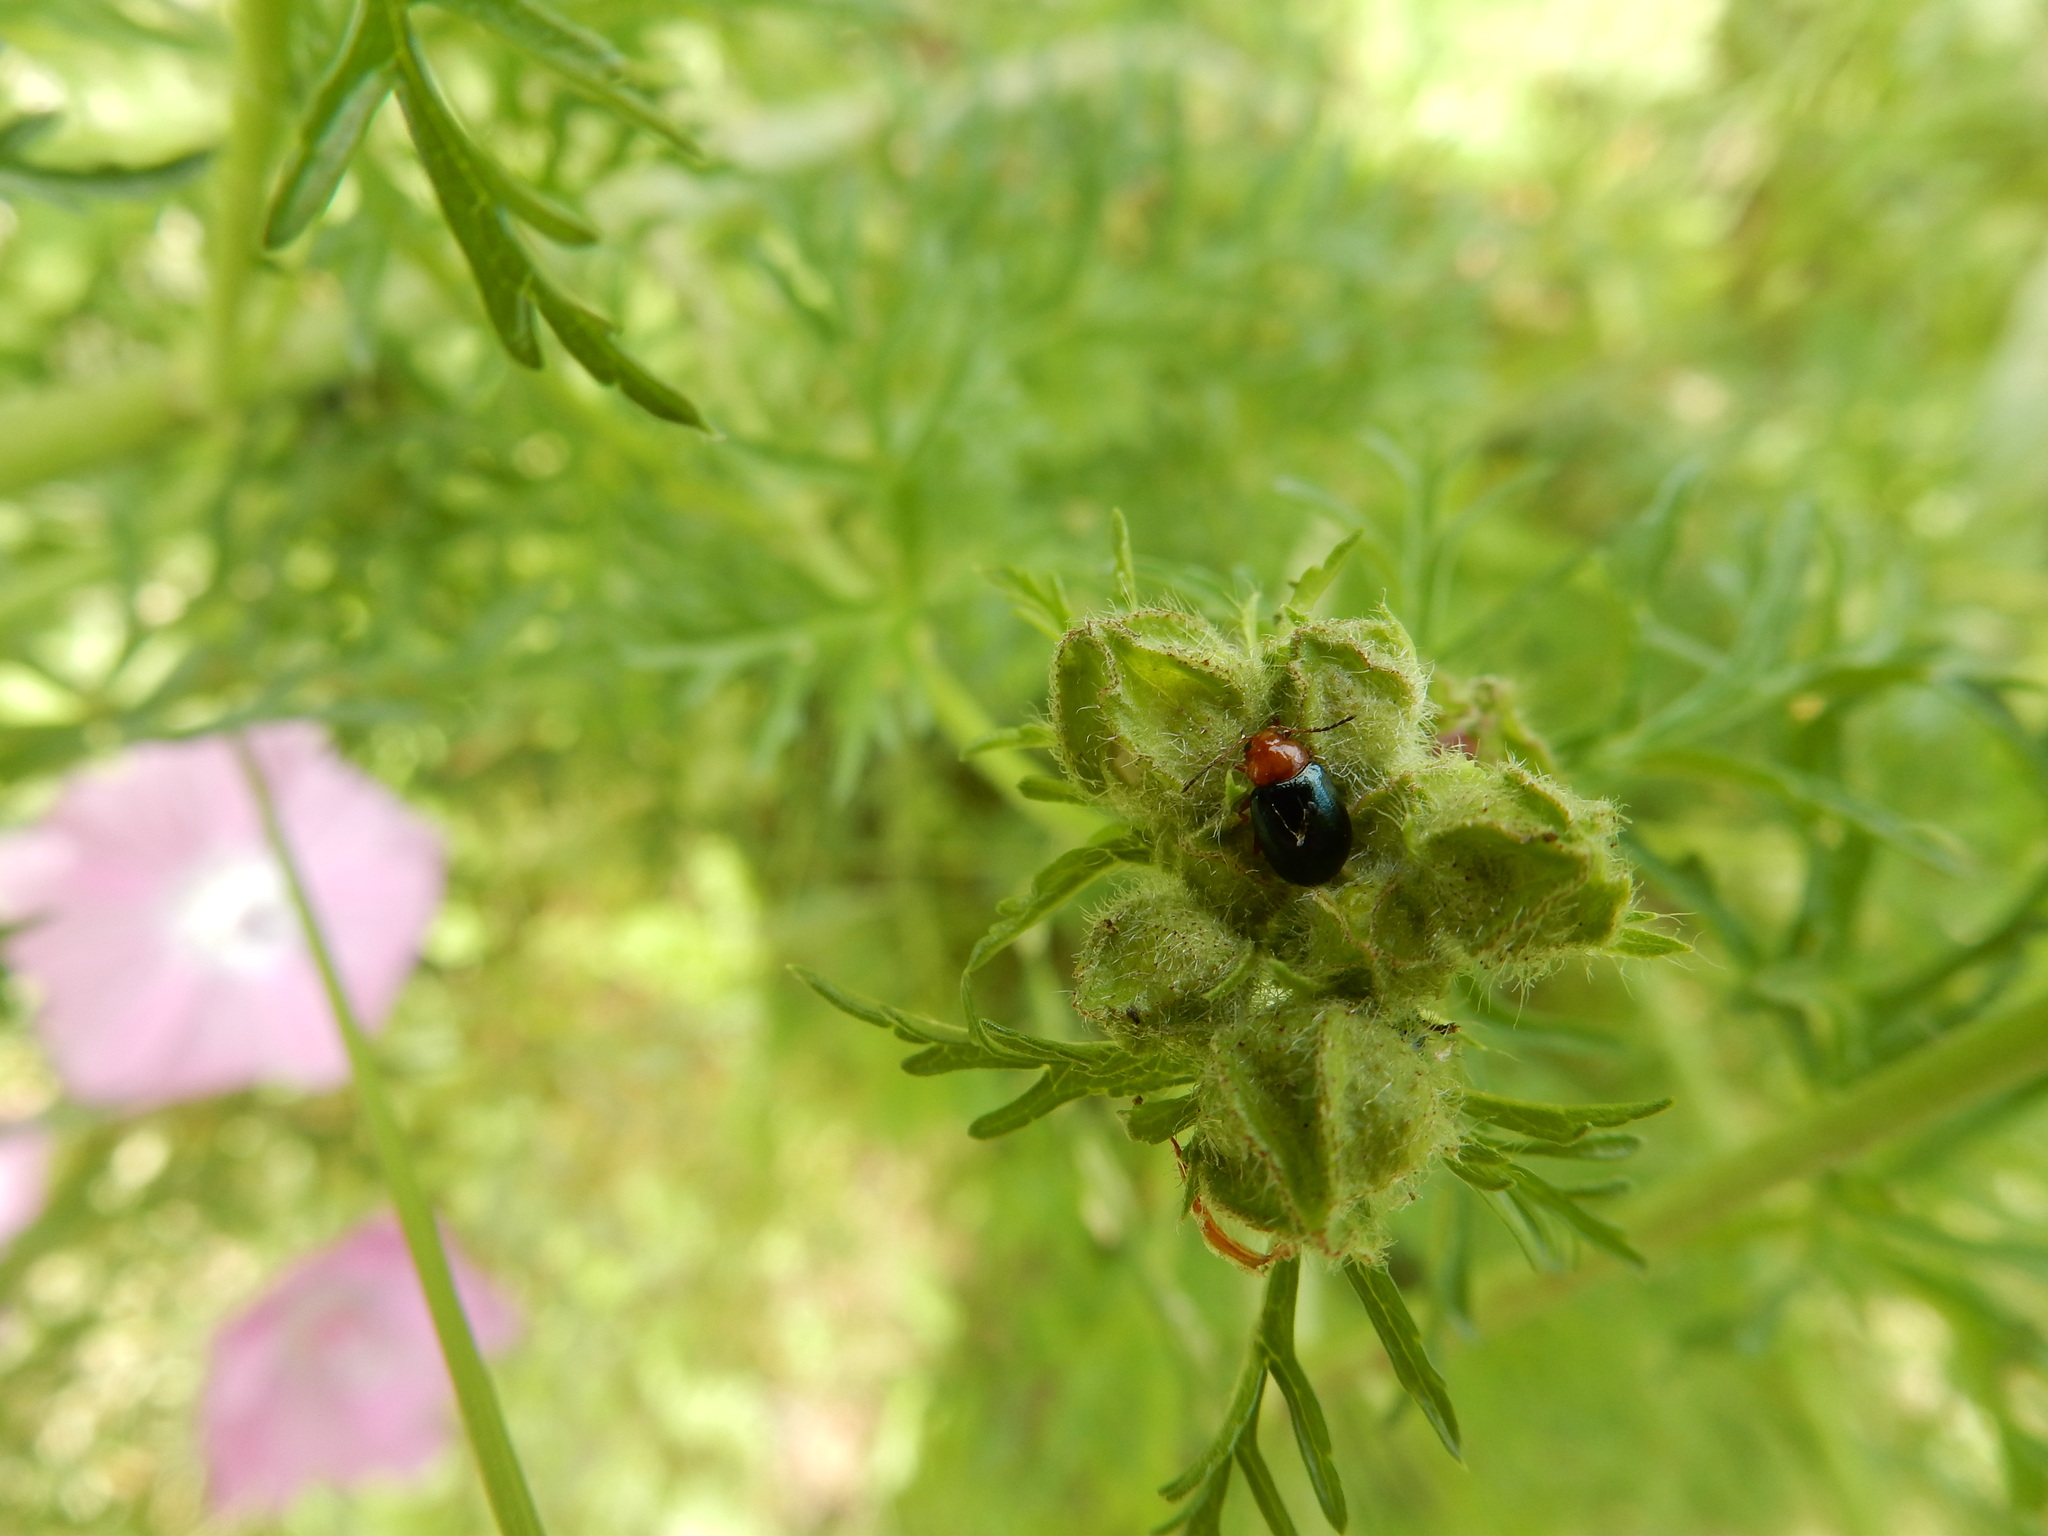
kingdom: Animalia
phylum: Arthropoda
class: Insecta
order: Coleoptera
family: Chrysomelidae
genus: Podagrica
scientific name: Podagrica fuscicornis
